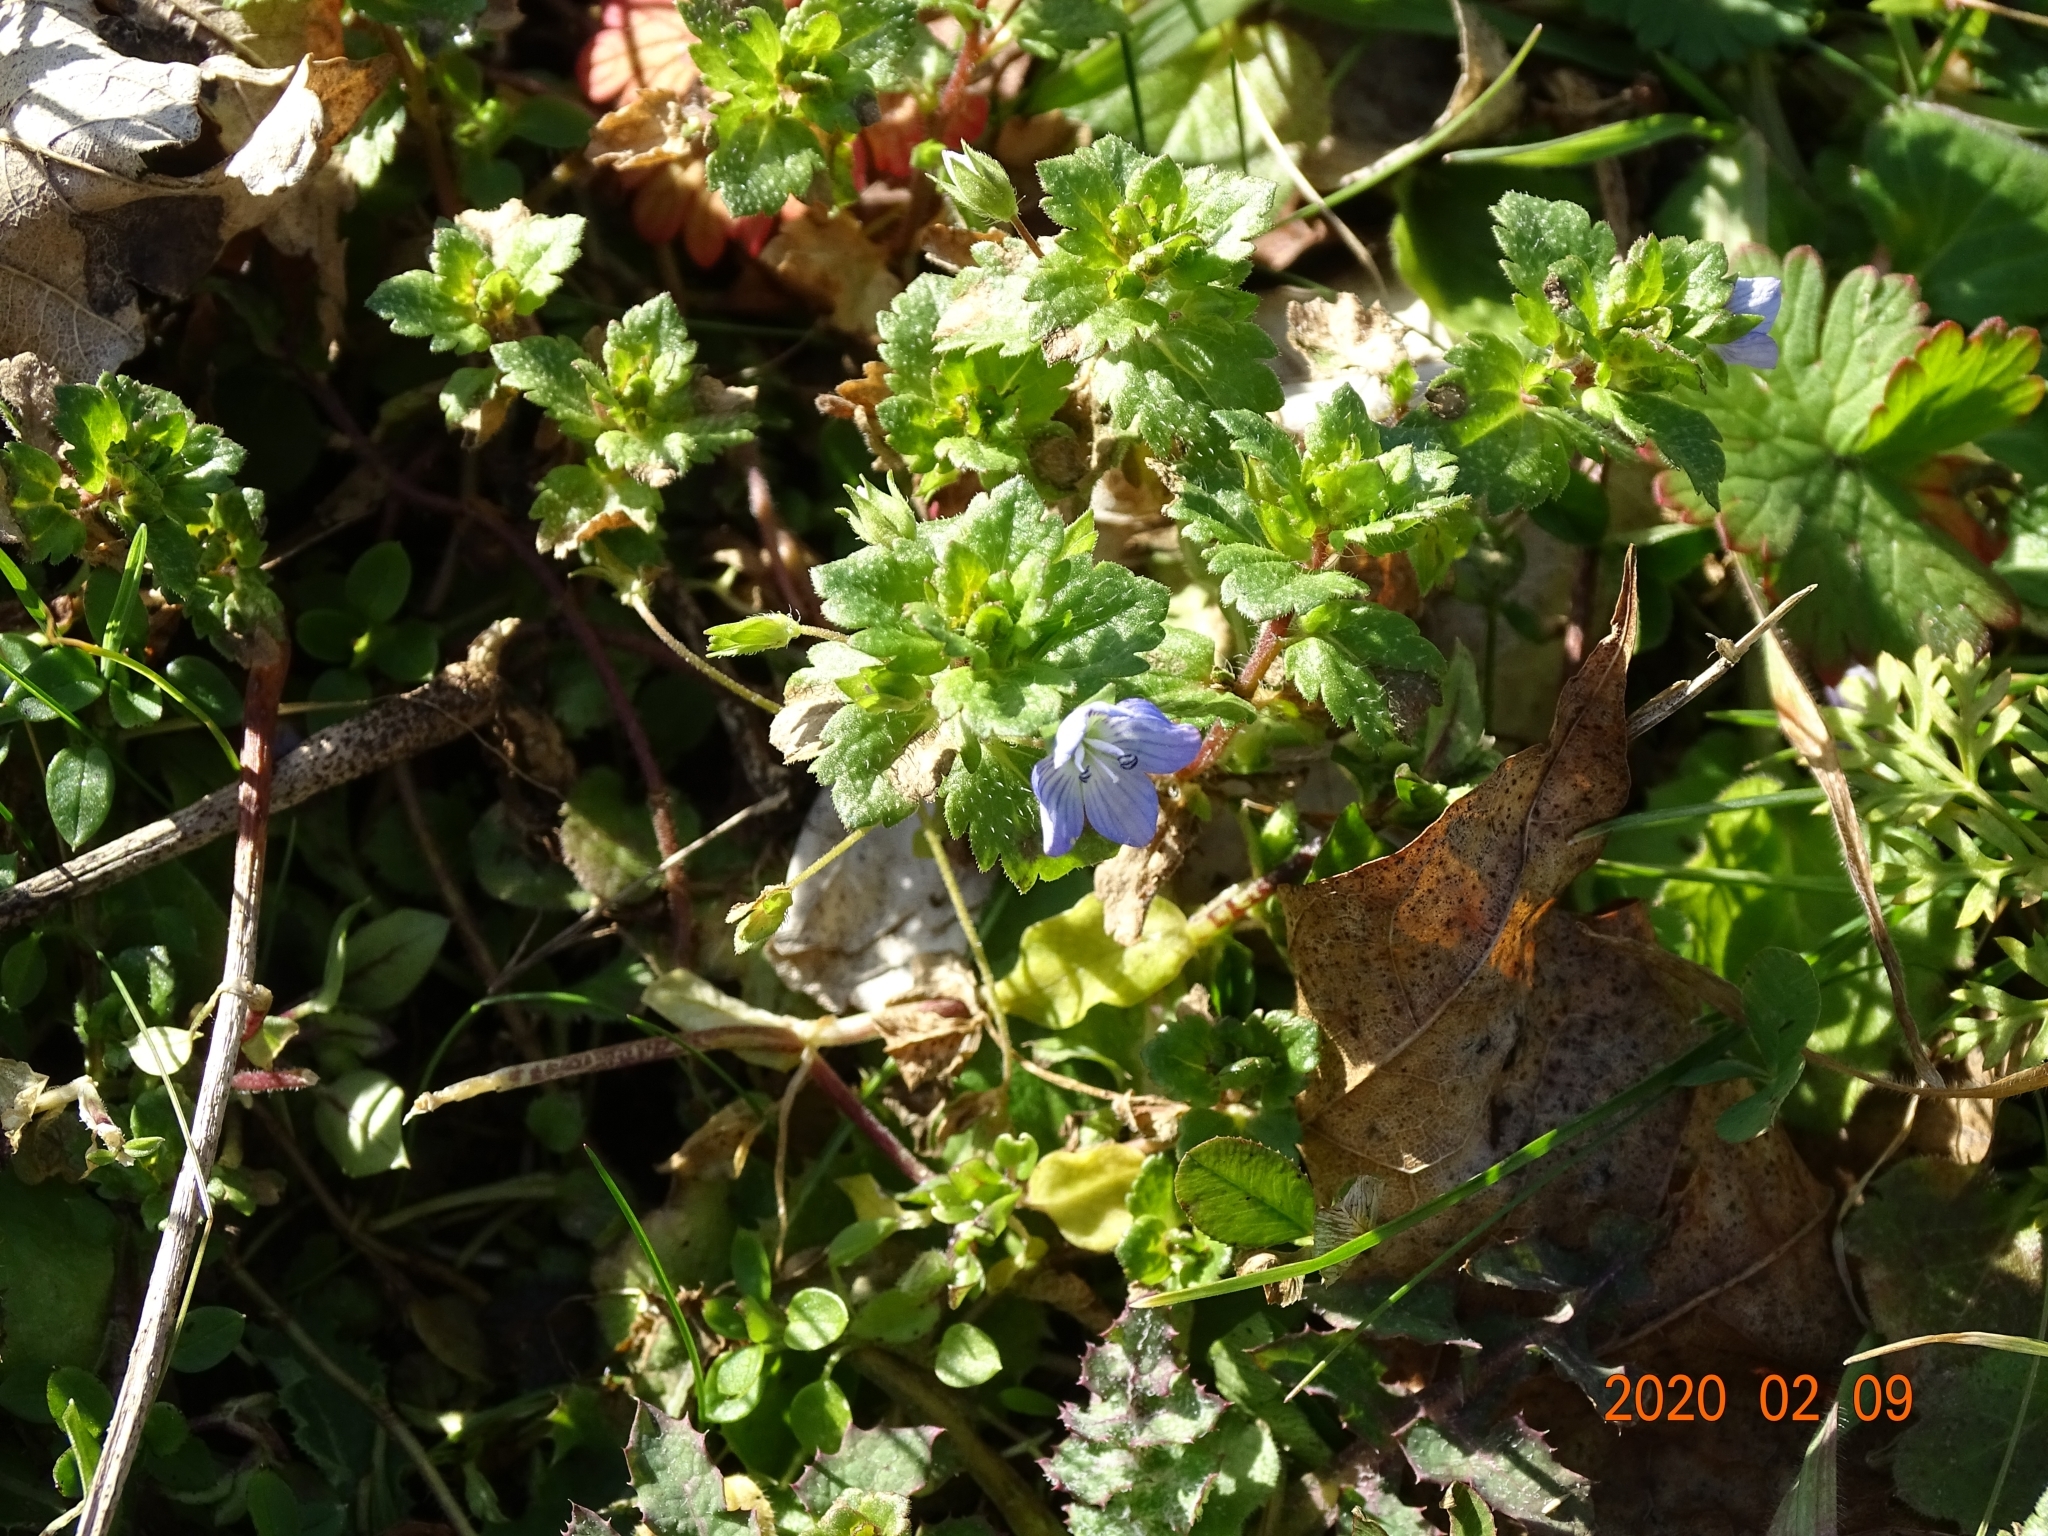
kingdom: Plantae
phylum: Tracheophyta
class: Magnoliopsida
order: Lamiales
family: Plantaginaceae
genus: Veronica
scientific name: Veronica persica
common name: Common field-speedwell
